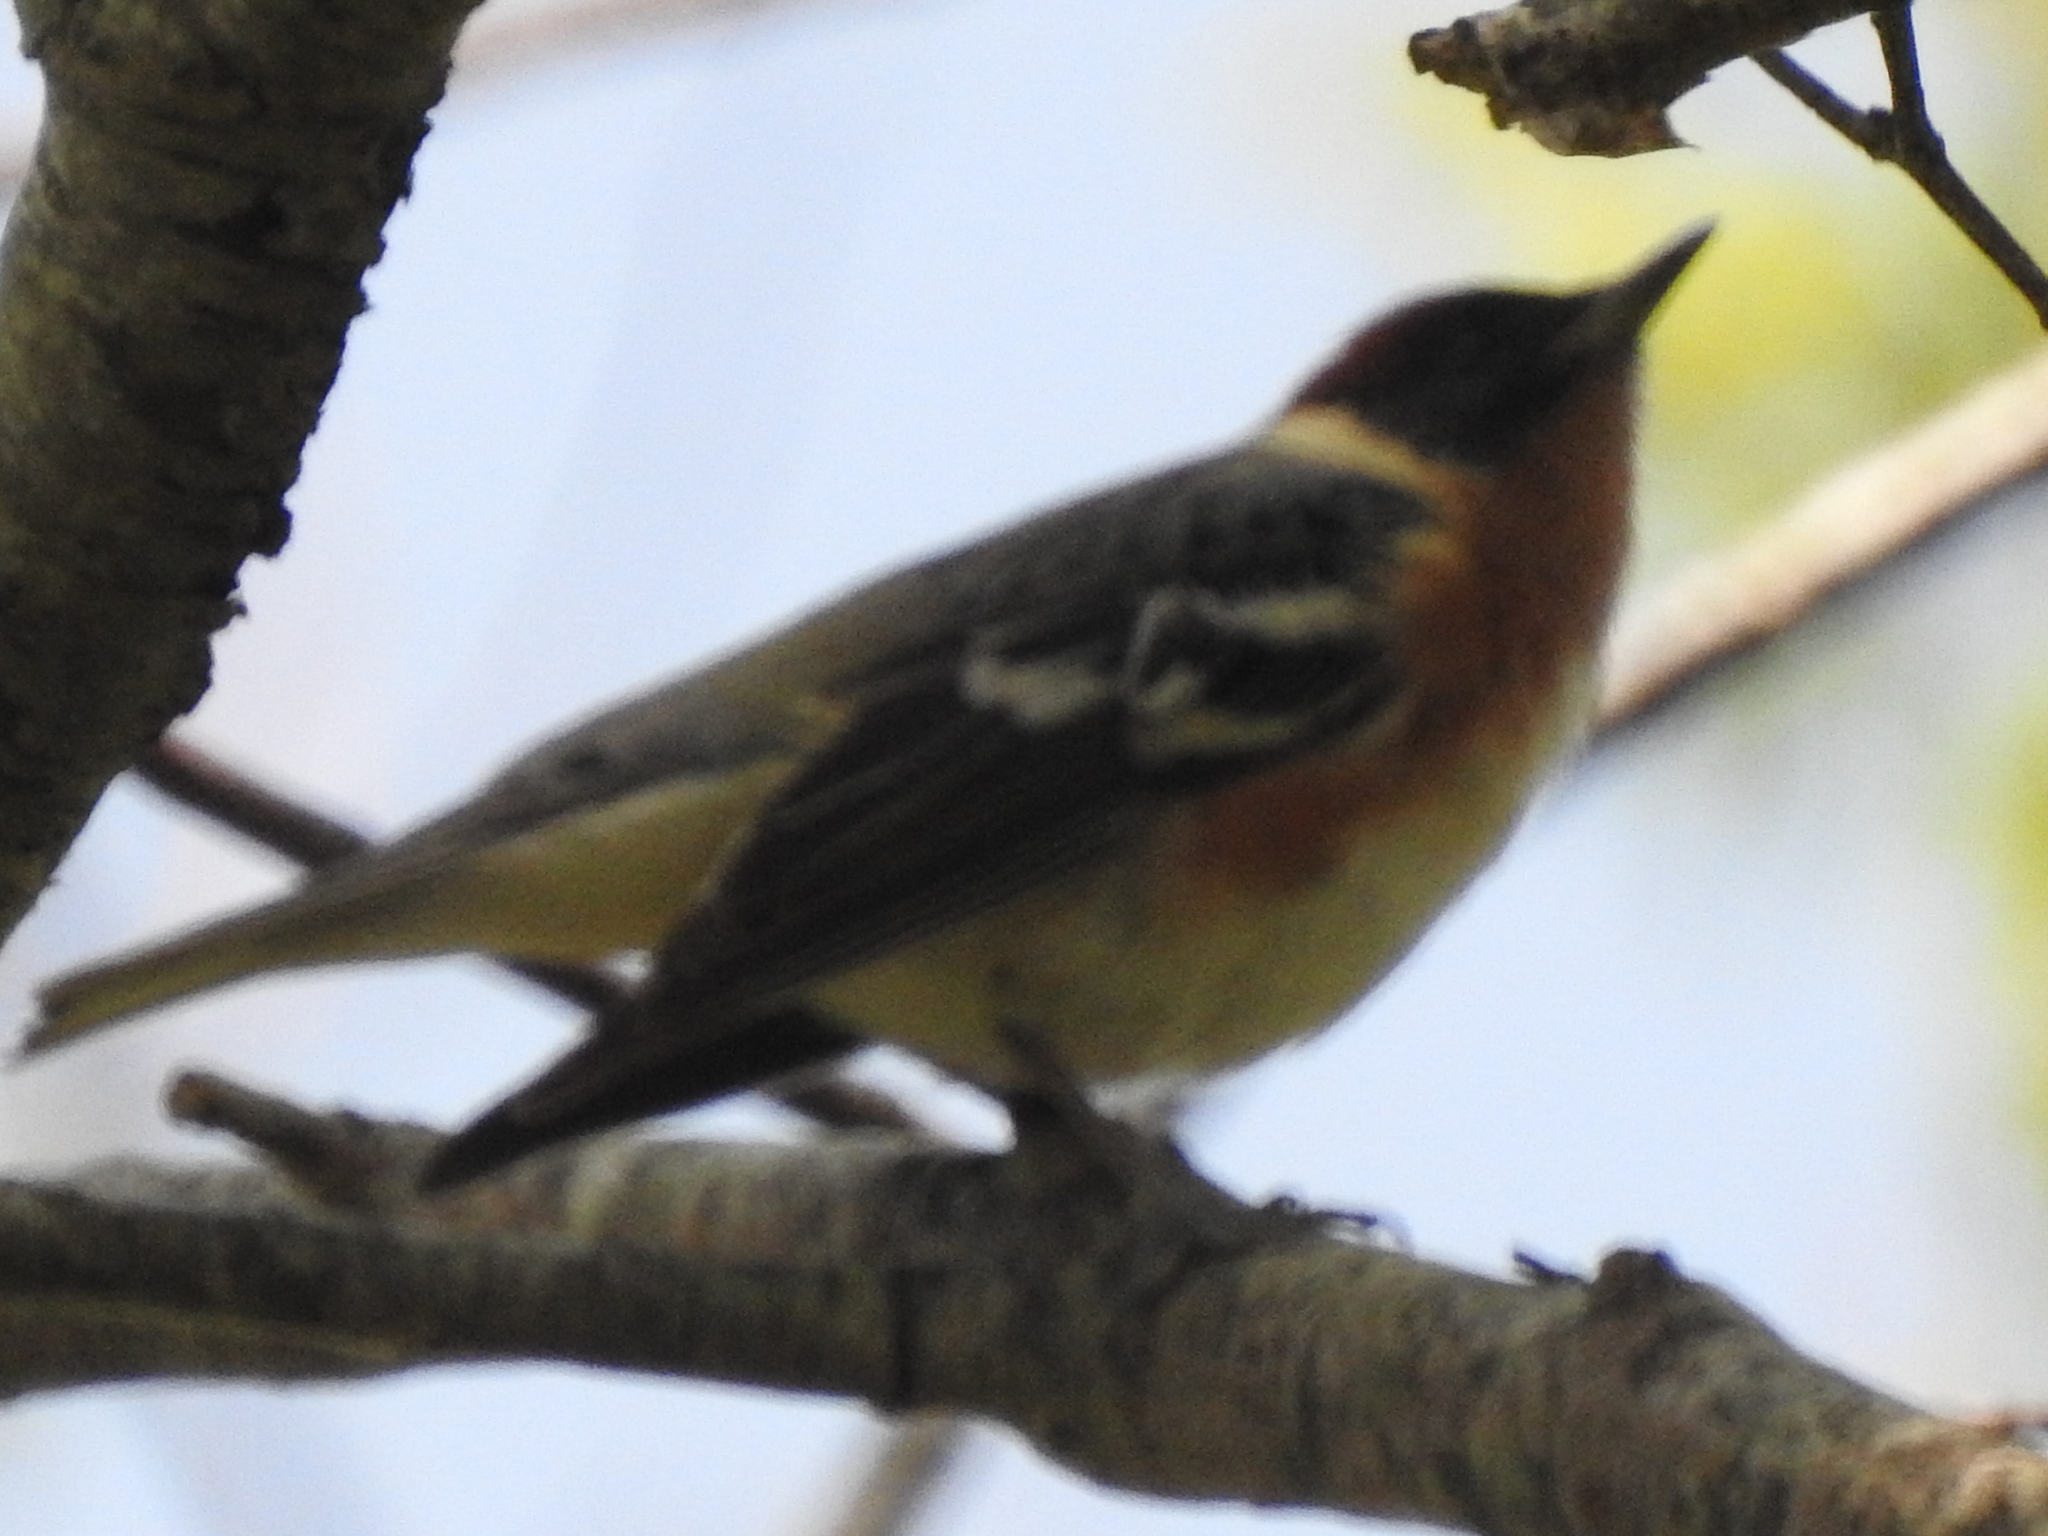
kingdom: Animalia
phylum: Chordata
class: Aves
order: Passeriformes
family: Parulidae
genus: Setophaga
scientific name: Setophaga castanea
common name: Bay-breasted warbler
